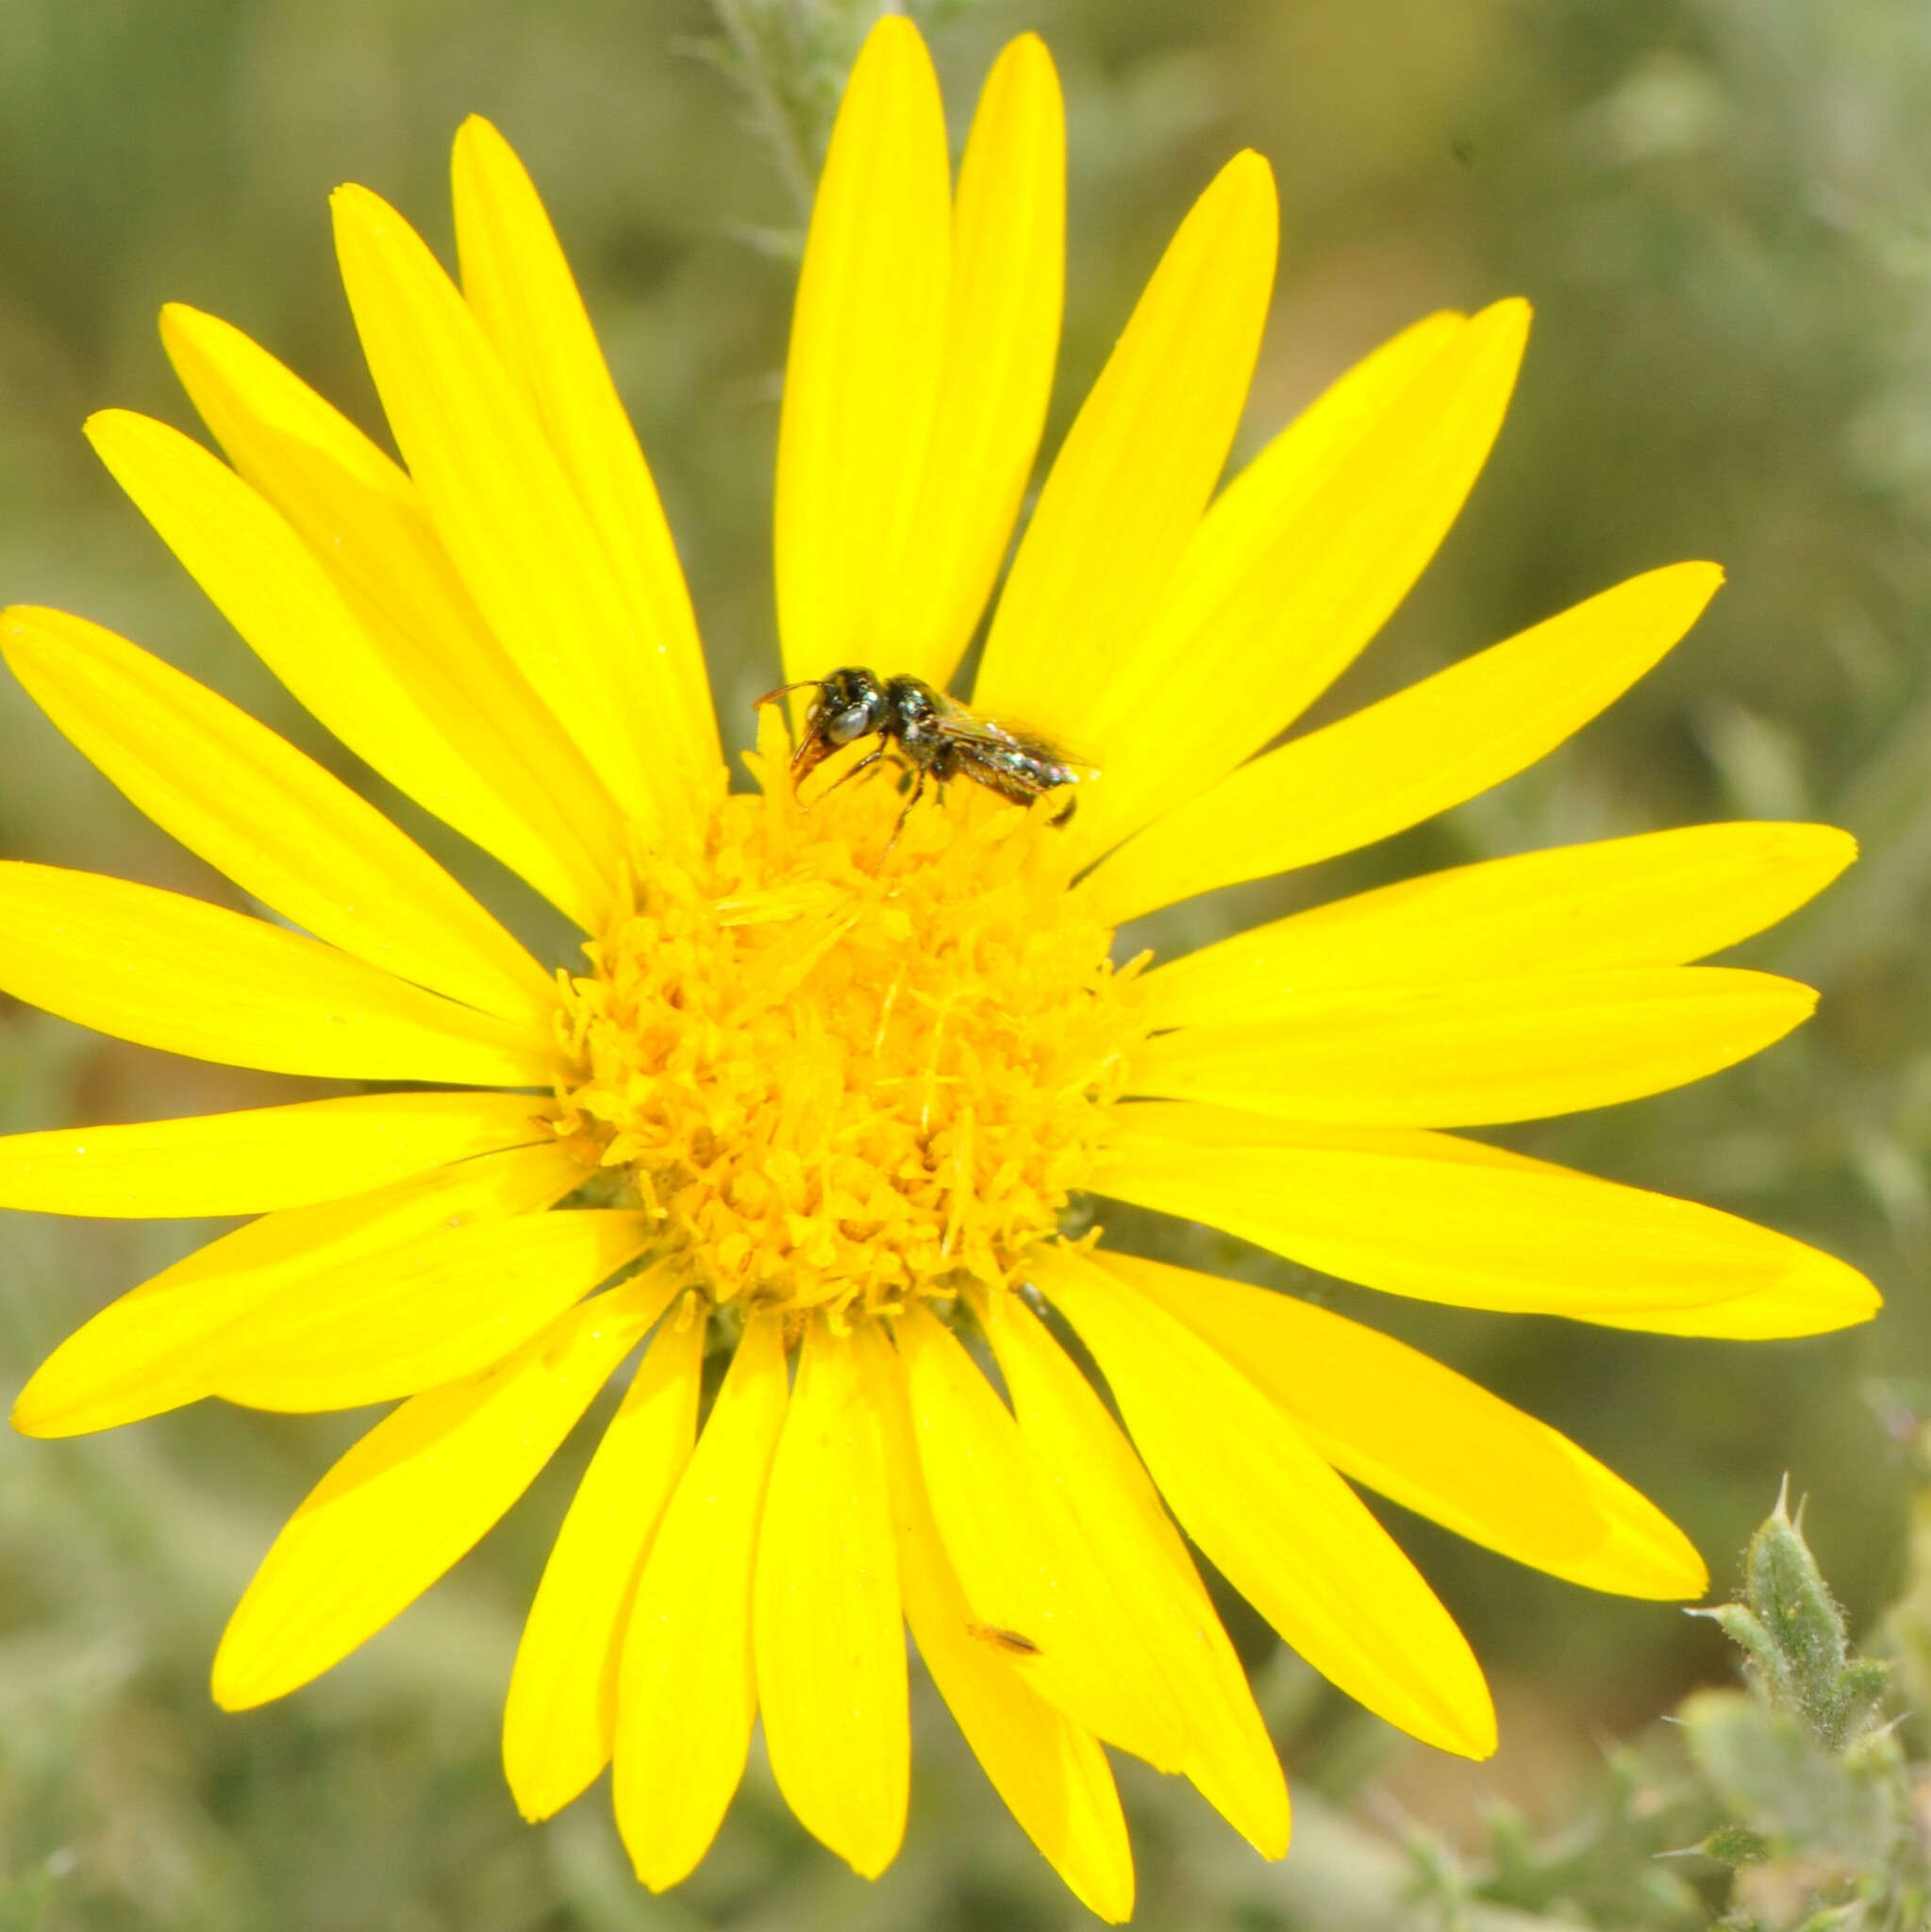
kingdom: Animalia
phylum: Arthropoda
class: Insecta
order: Hymenoptera
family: Apidae
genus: Zadontomerus
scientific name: Zadontomerus
